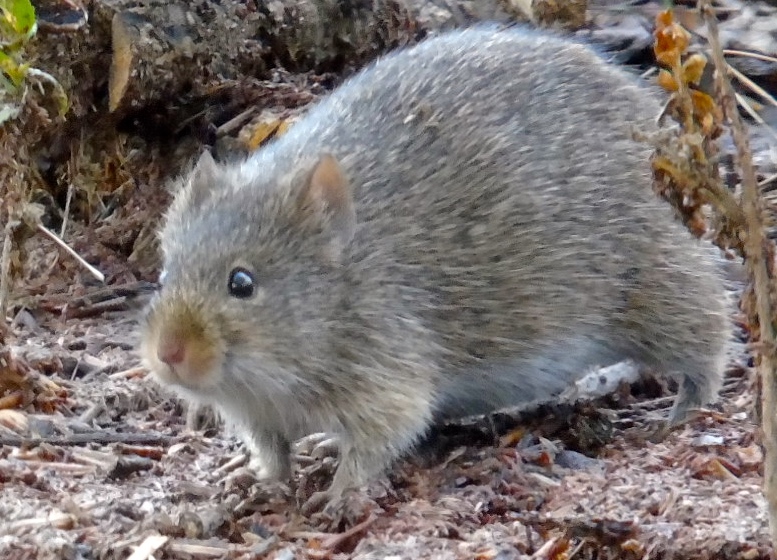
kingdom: Animalia
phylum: Chordata
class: Mammalia
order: Rodentia
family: Cricetidae
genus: Sigmodon
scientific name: Sigmodon arizonae
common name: Arizona cotton rat
